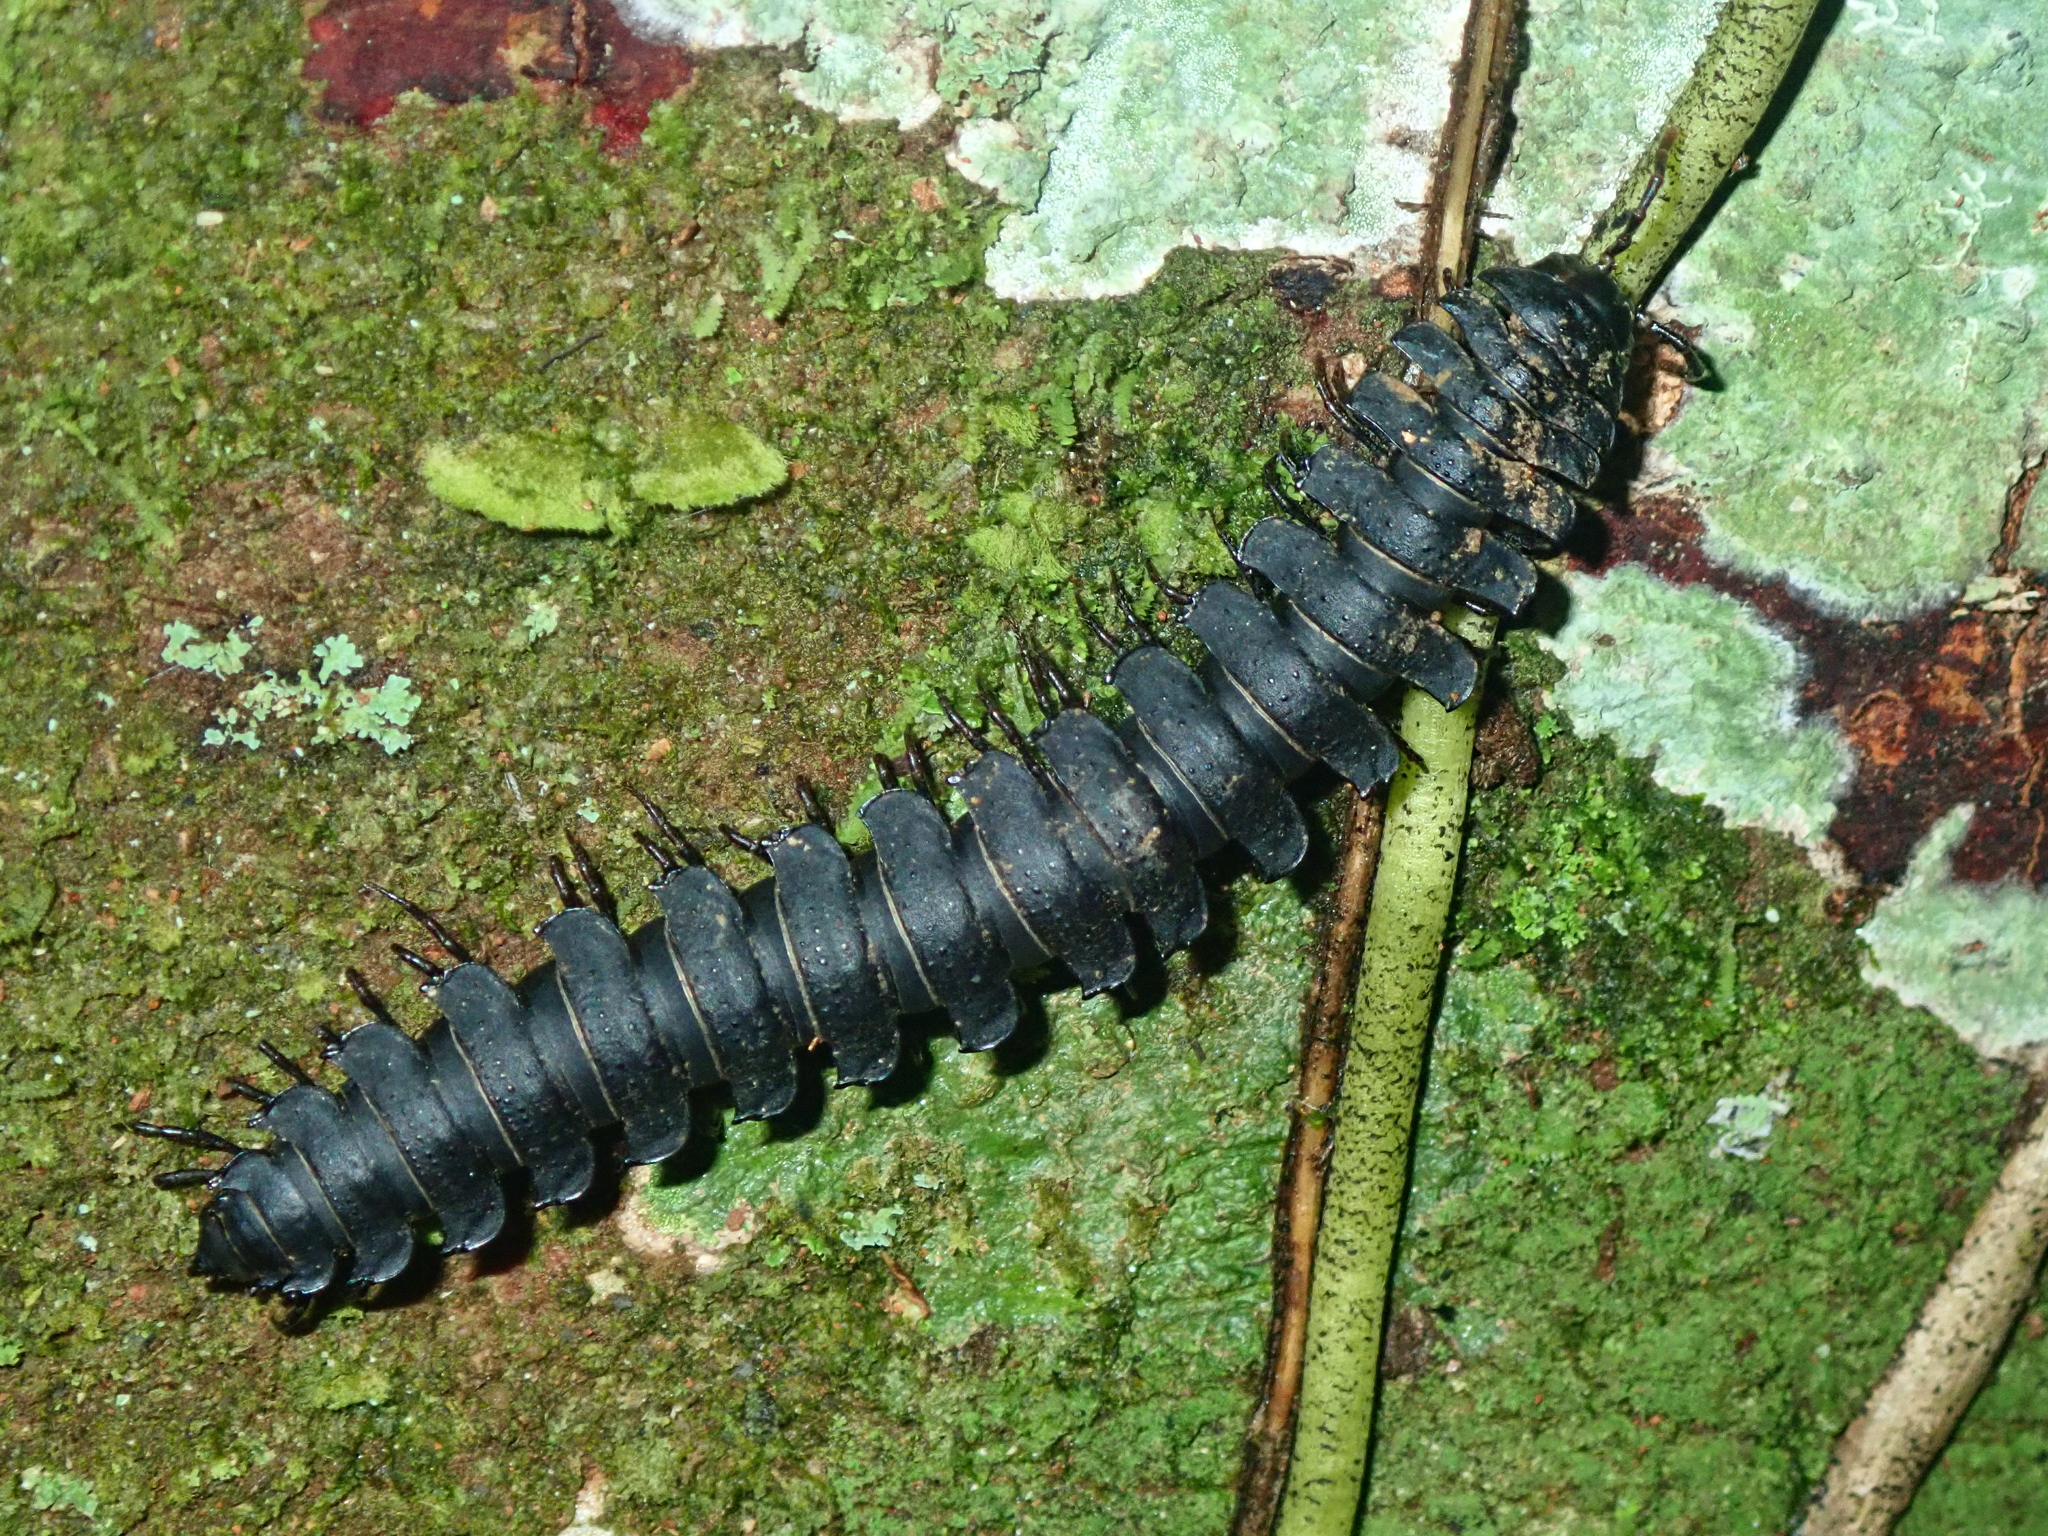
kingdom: Animalia
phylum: Arthropoda
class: Diplopoda
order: Polydesmida
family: Chelodesmidae
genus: Atlantodesmus
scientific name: Atlantodesmus eimeri
